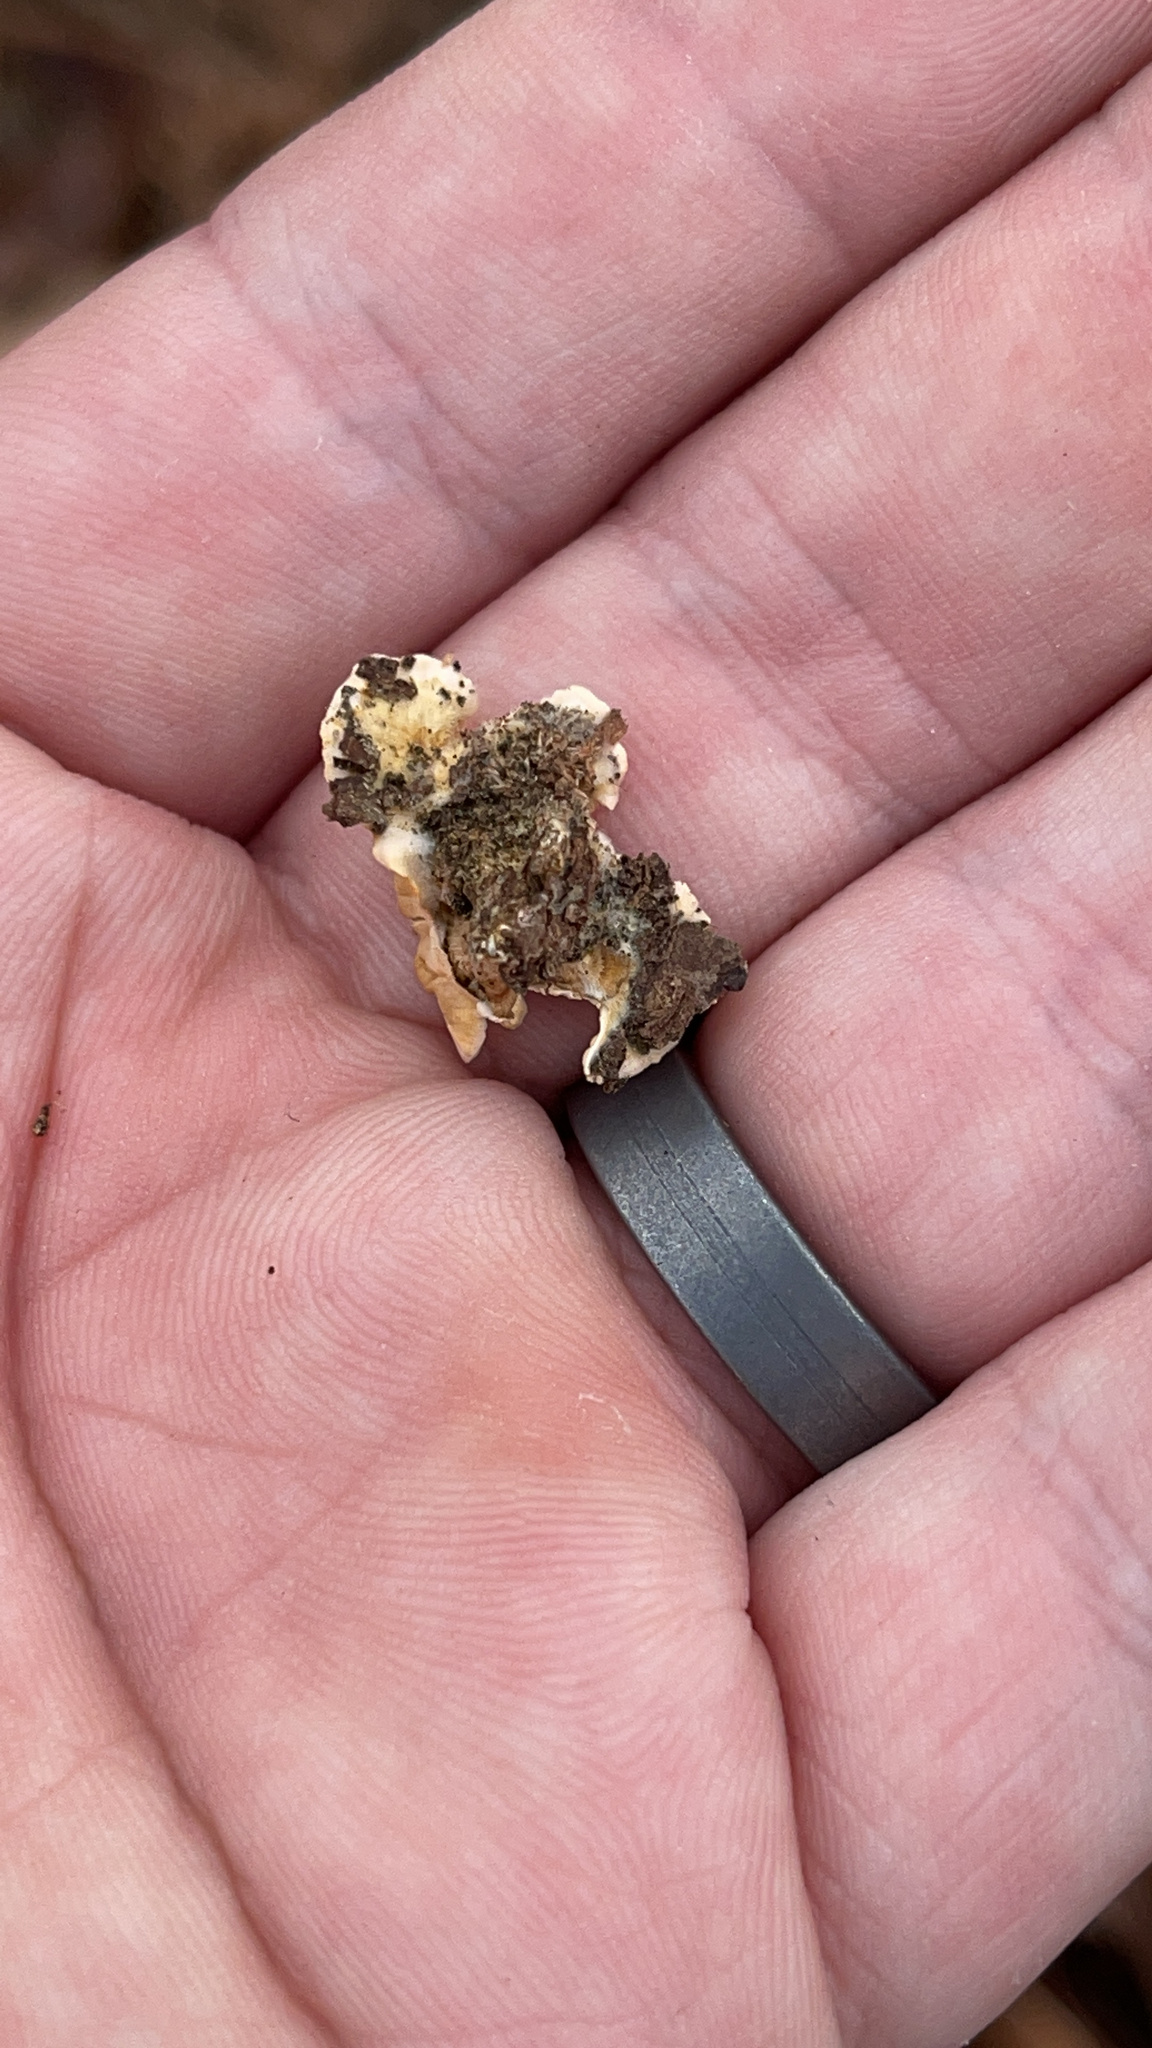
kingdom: Fungi
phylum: Basidiomycota
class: Agaricomycetes
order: Russulales
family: Stereaceae
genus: Stereum
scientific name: Stereum complicatum
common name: Crowded parchment
